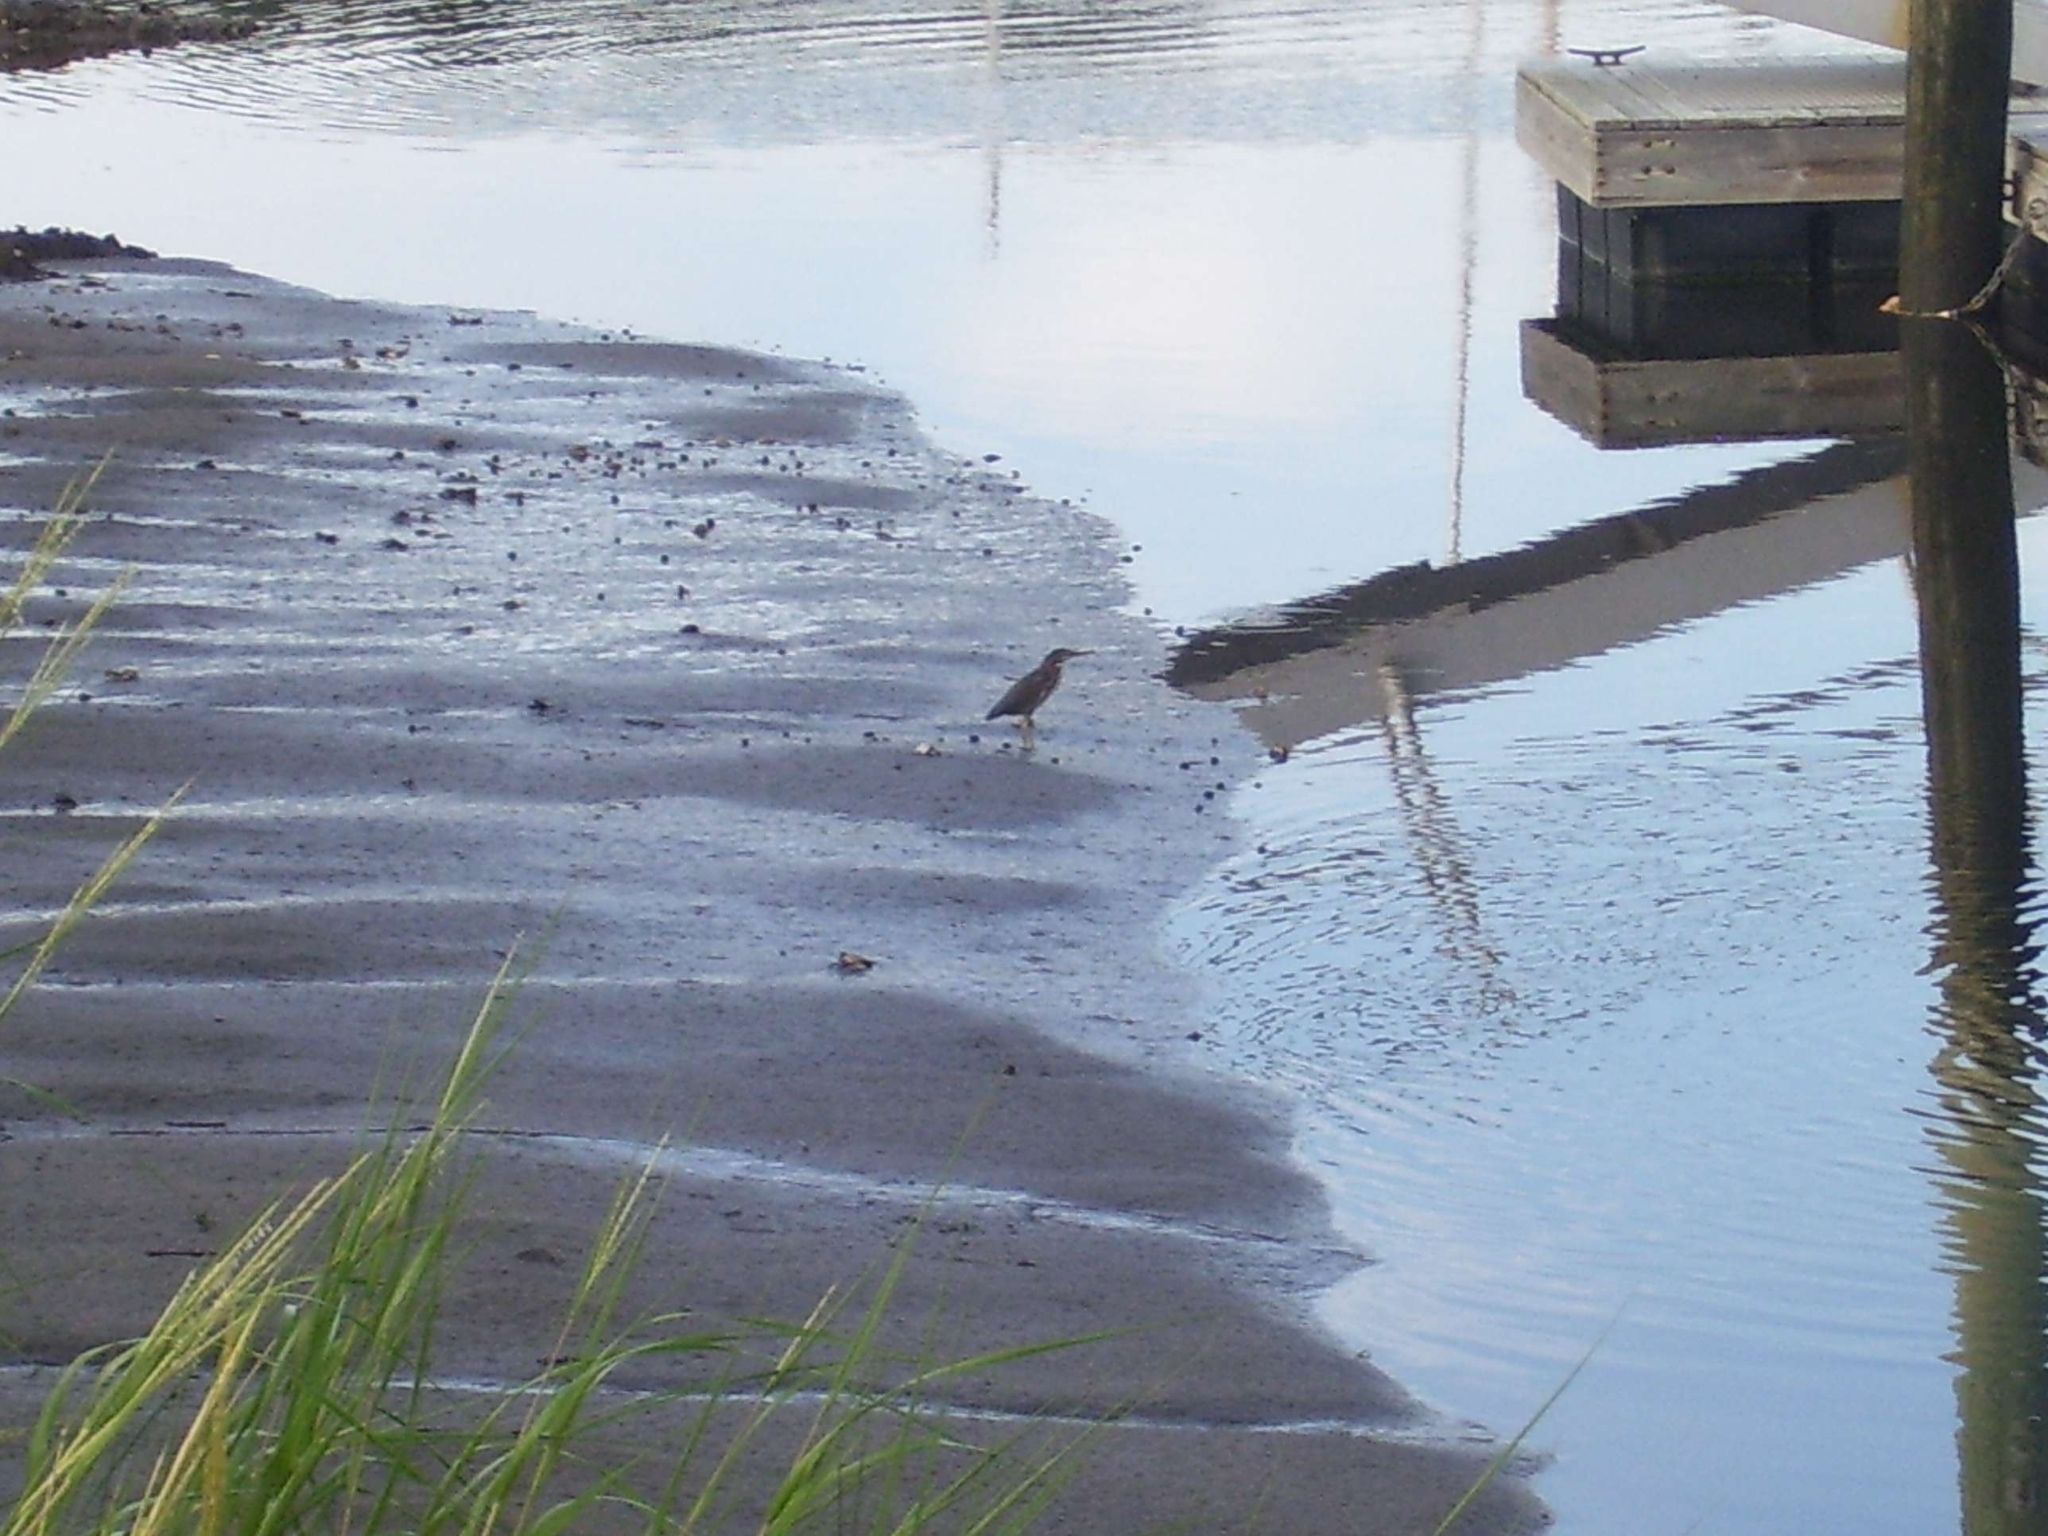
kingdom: Animalia
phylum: Chordata
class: Aves
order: Pelecaniformes
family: Ardeidae
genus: Butorides
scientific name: Butorides virescens
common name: Green heron
